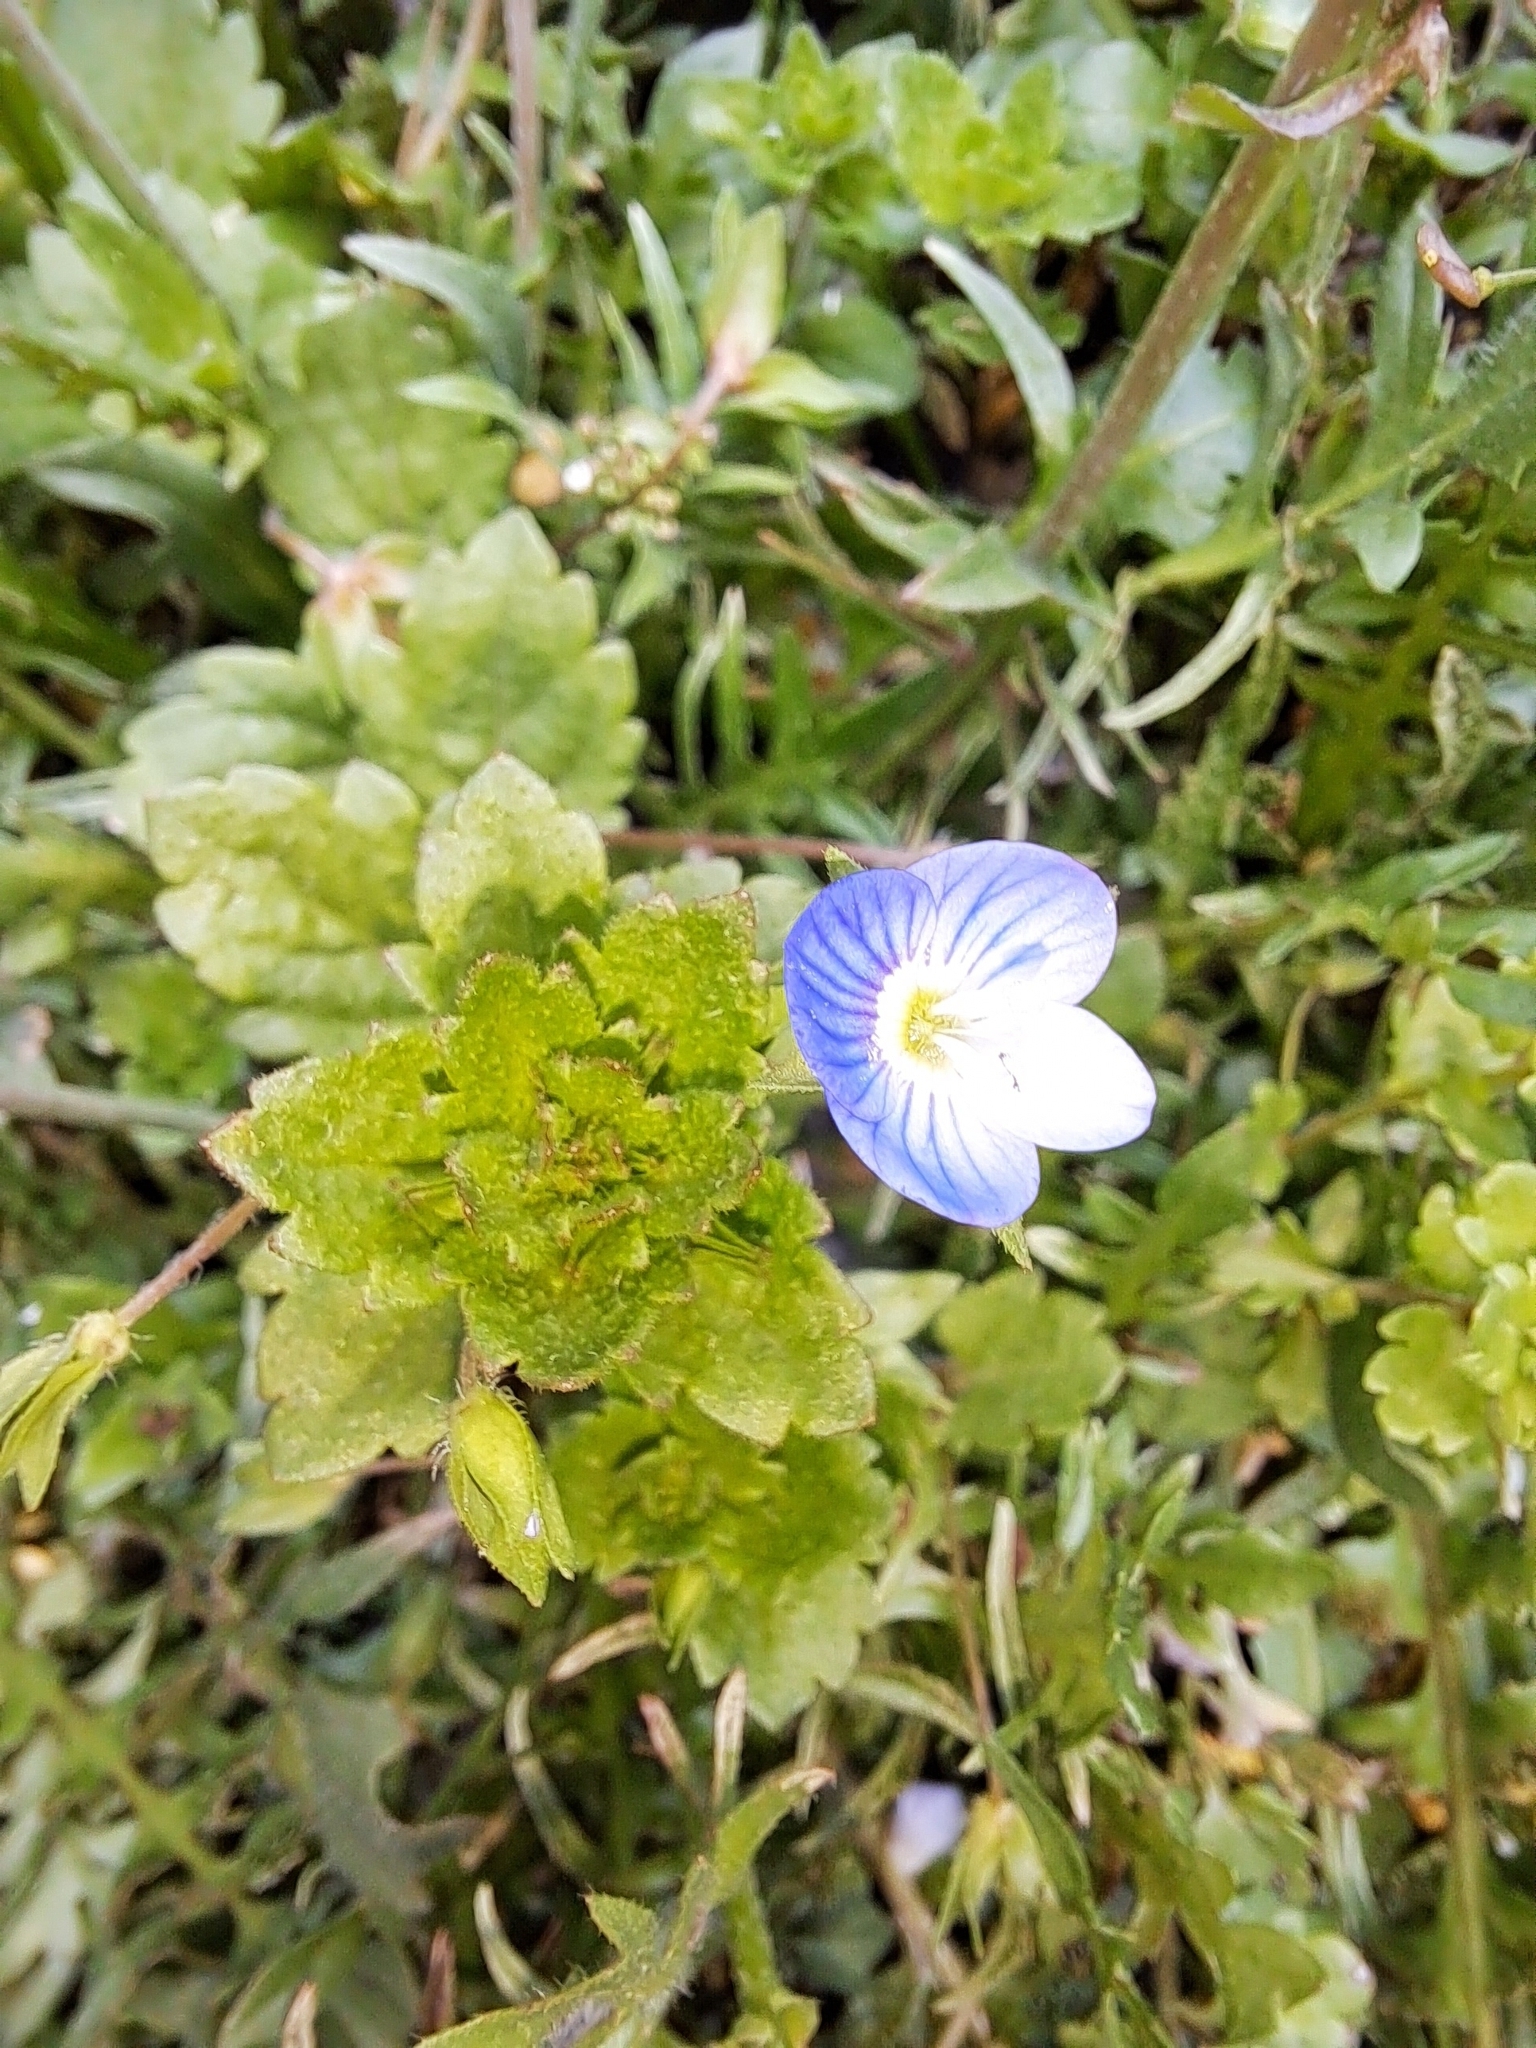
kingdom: Plantae
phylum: Tracheophyta
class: Magnoliopsida
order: Lamiales
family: Plantaginaceae
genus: Veronica
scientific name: Veronica persica
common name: Common field-speedwell
